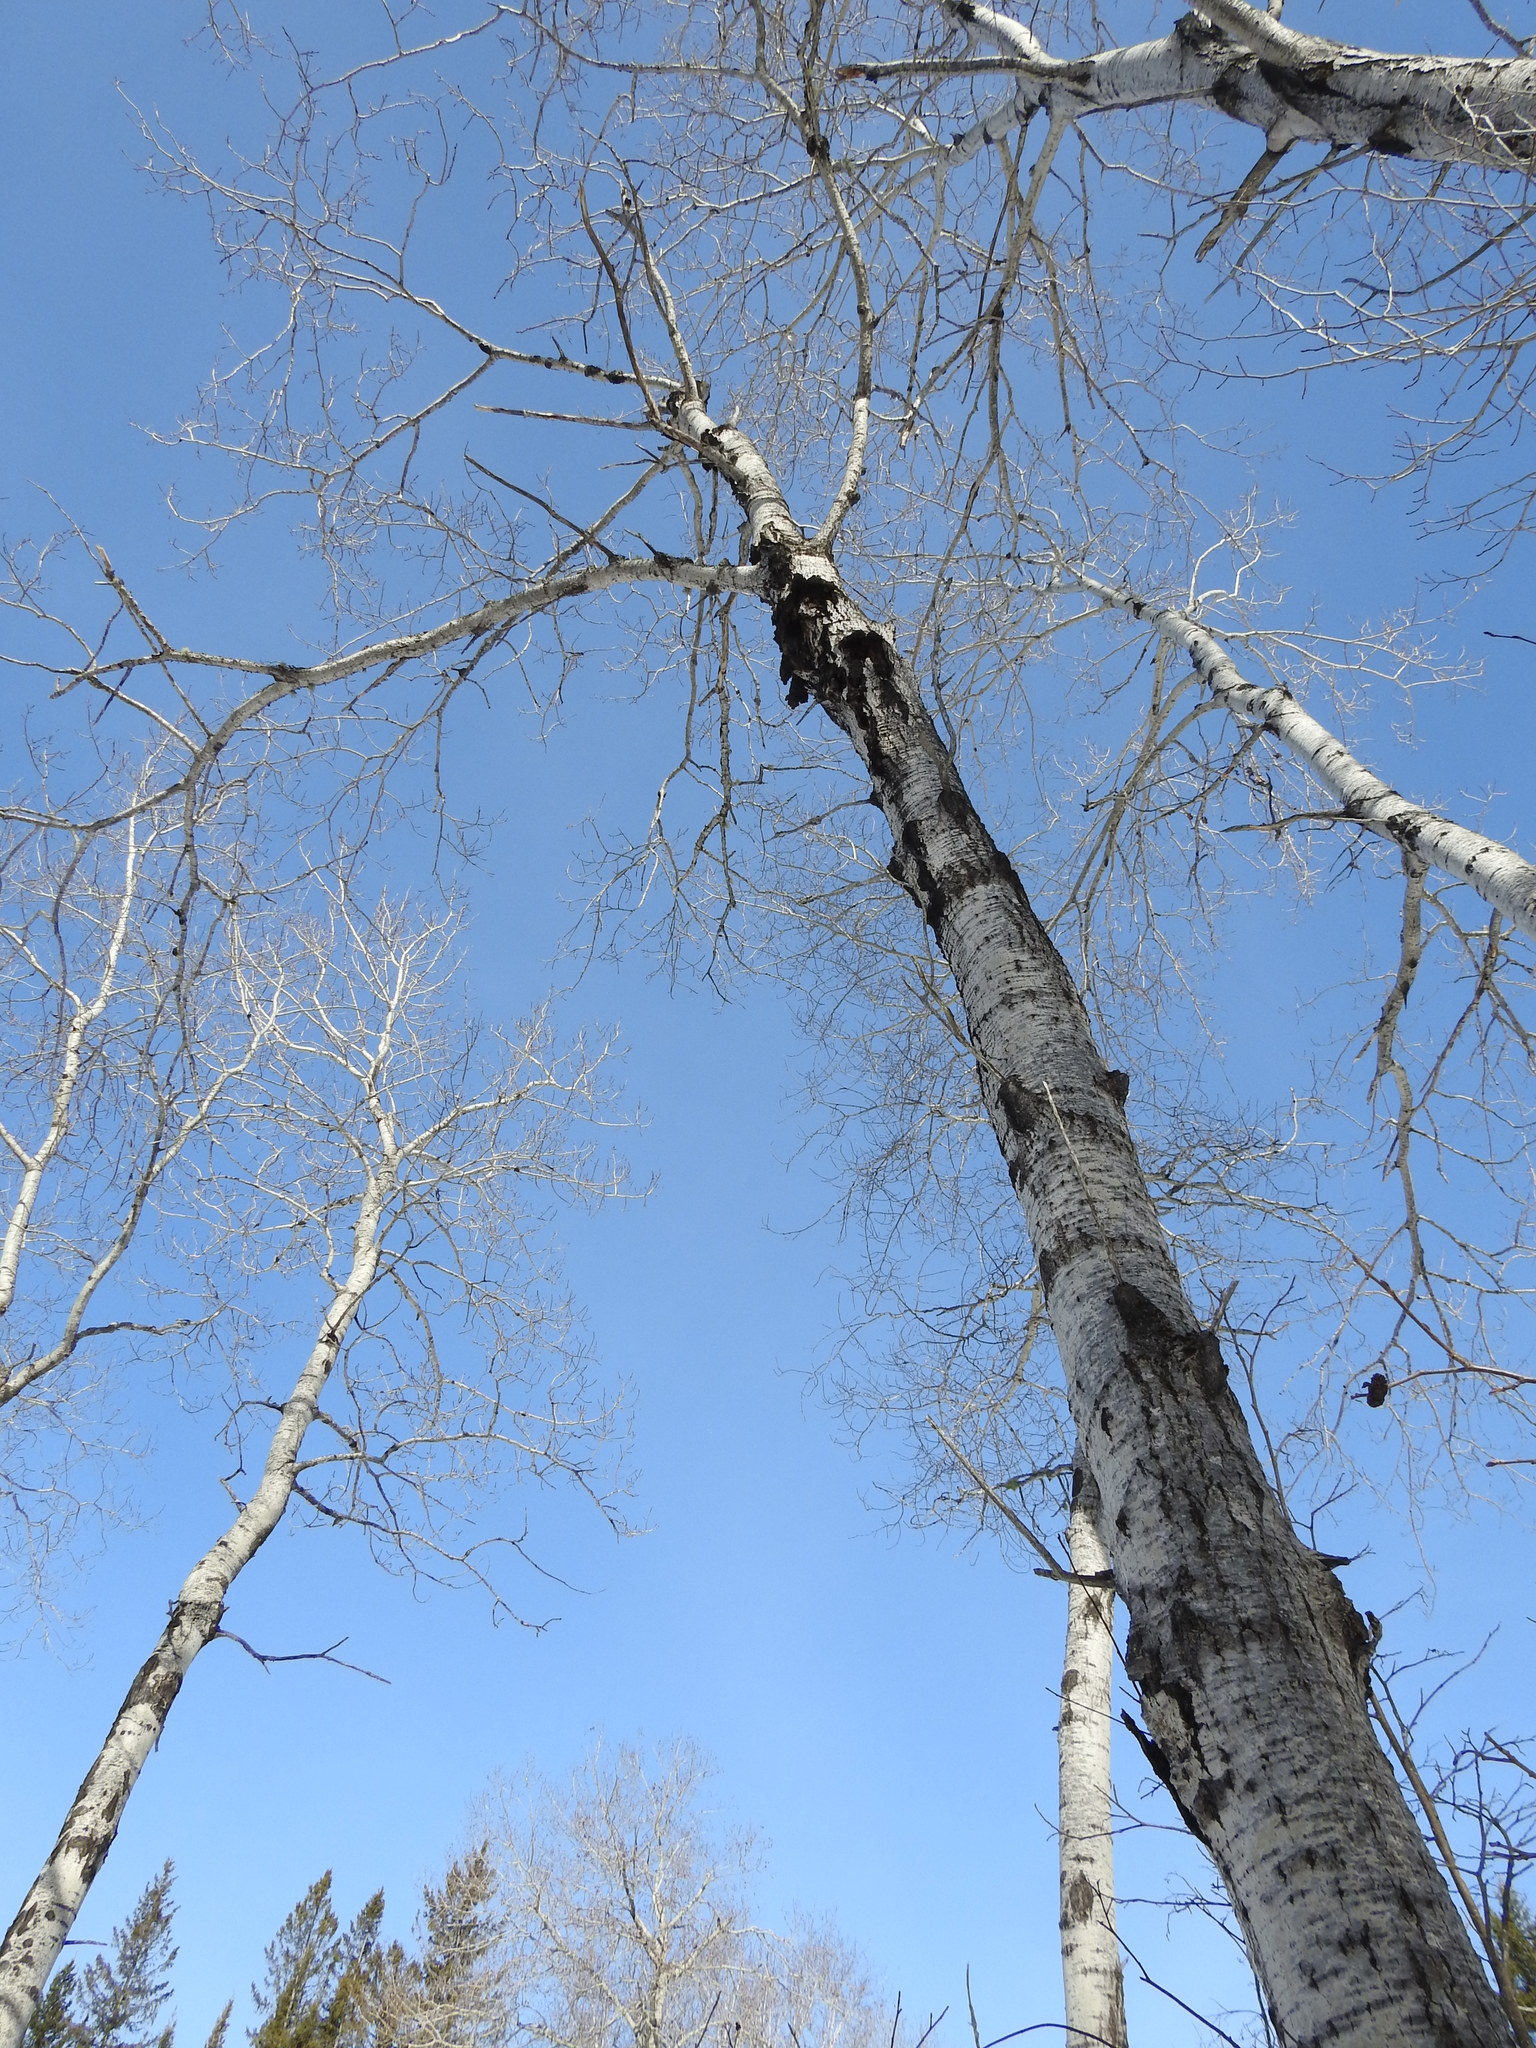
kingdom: Plantae
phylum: Tracheophyta
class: Magnoliopsida
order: Malpighiales
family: Salicaceae
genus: Populus
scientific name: Populus tremuloides
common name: Quaking aspen
